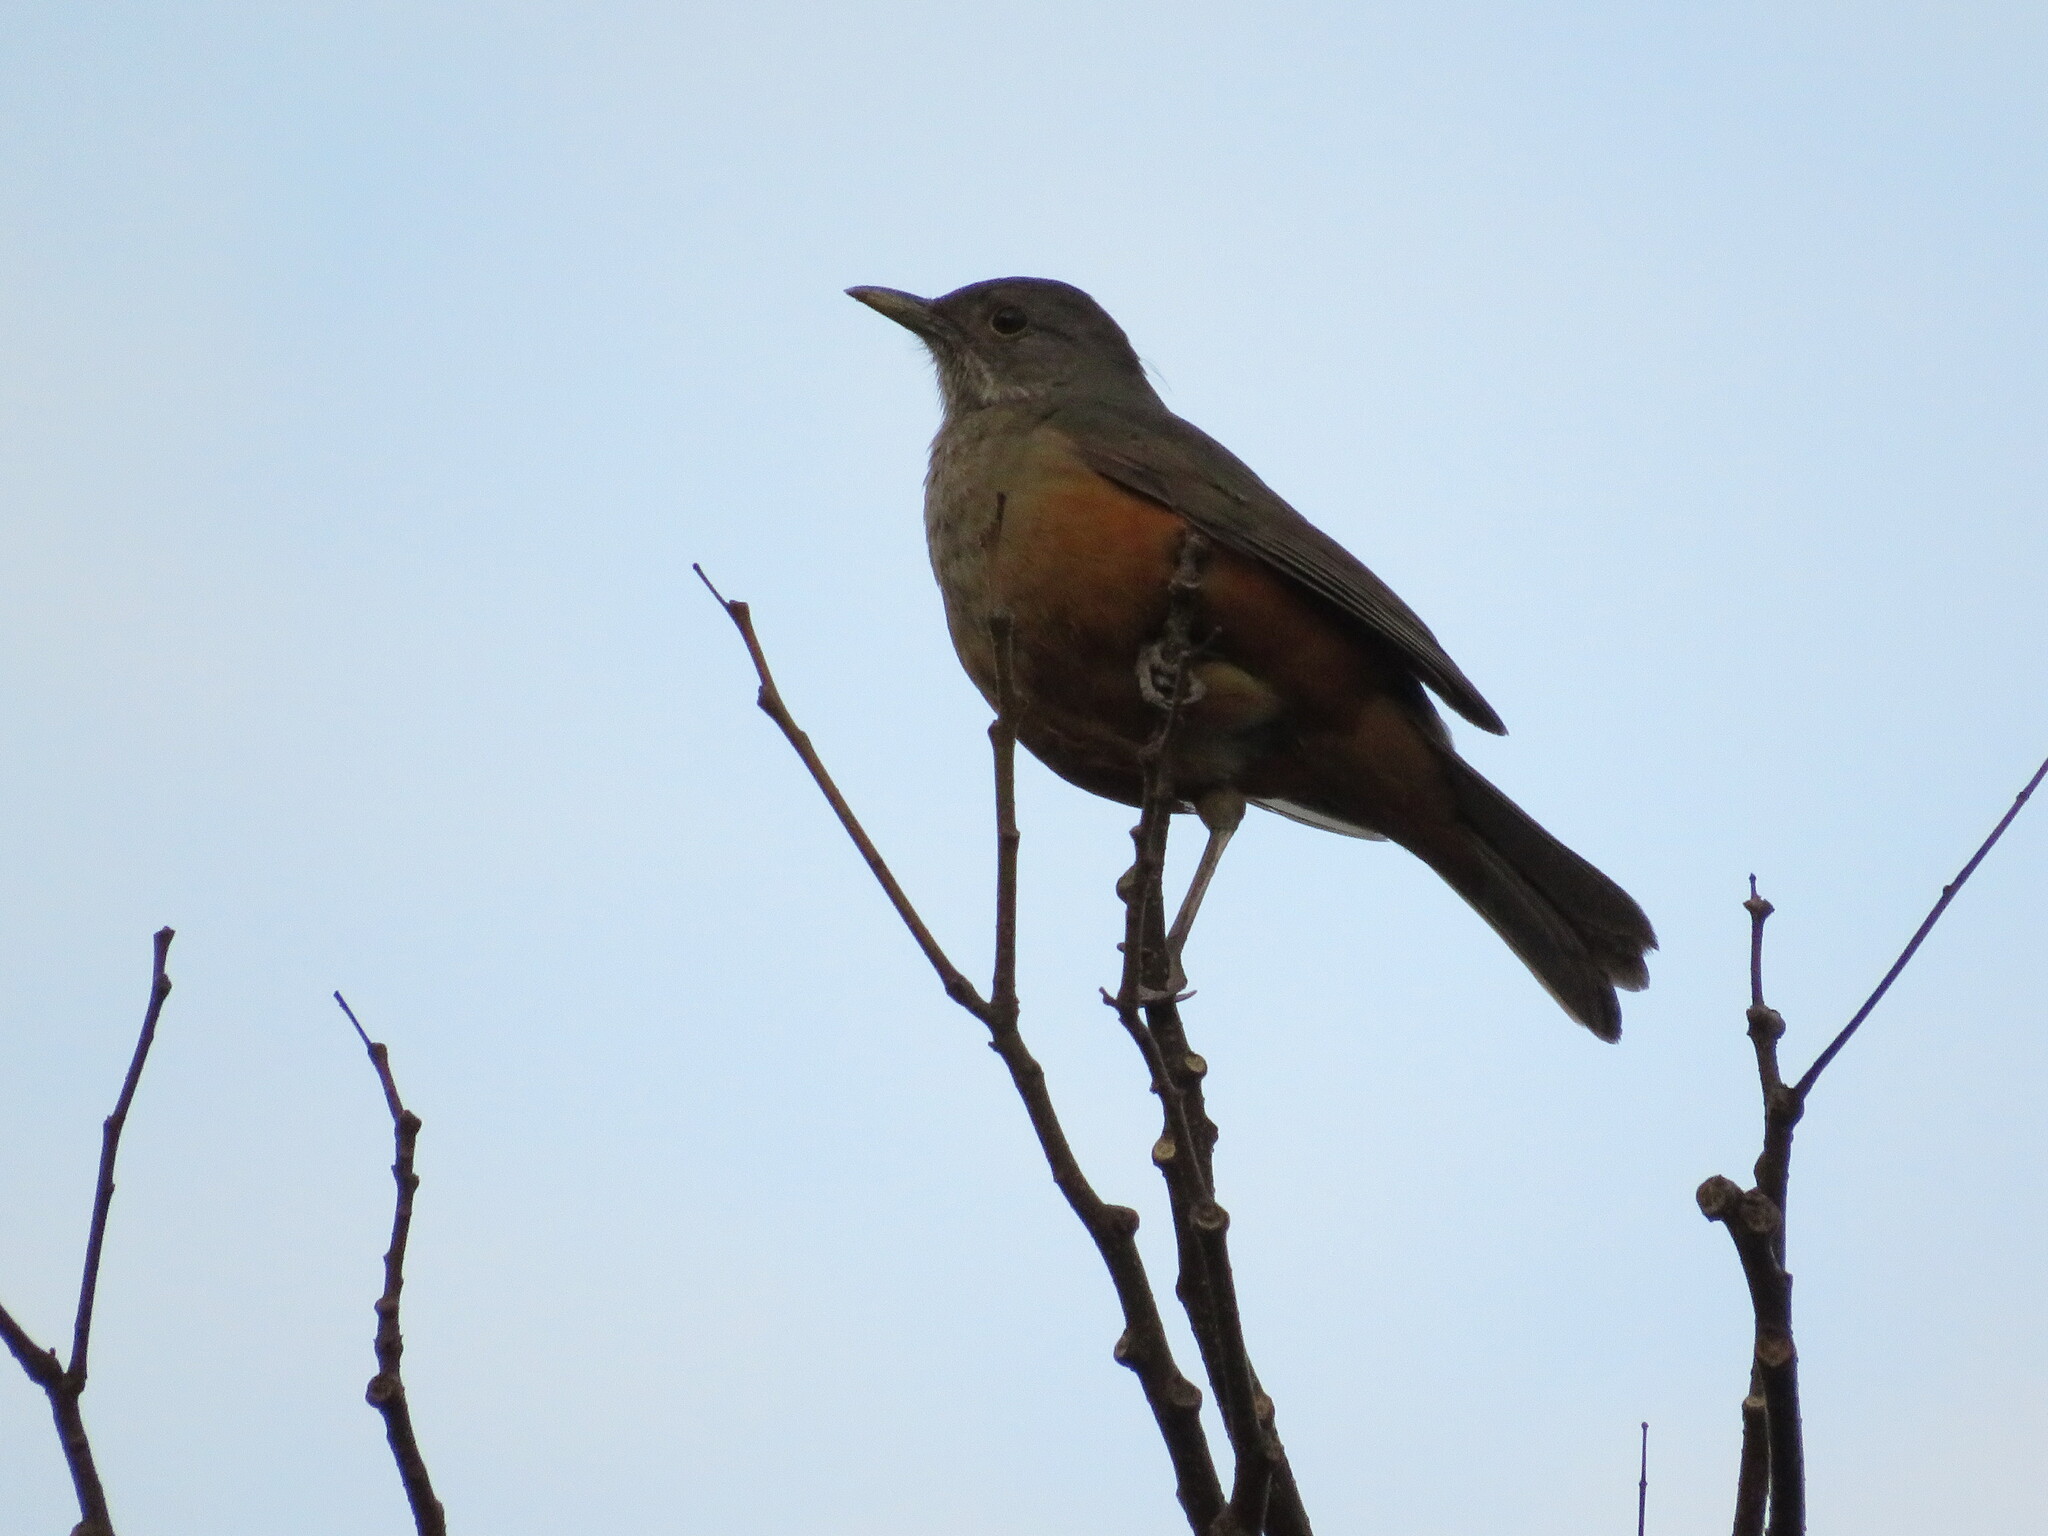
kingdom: Animalia
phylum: Chordata
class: Aves
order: Passeriformes
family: Turdidae
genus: Turdus
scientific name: Turdus rufiventris
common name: Rufous-bellied thrush
